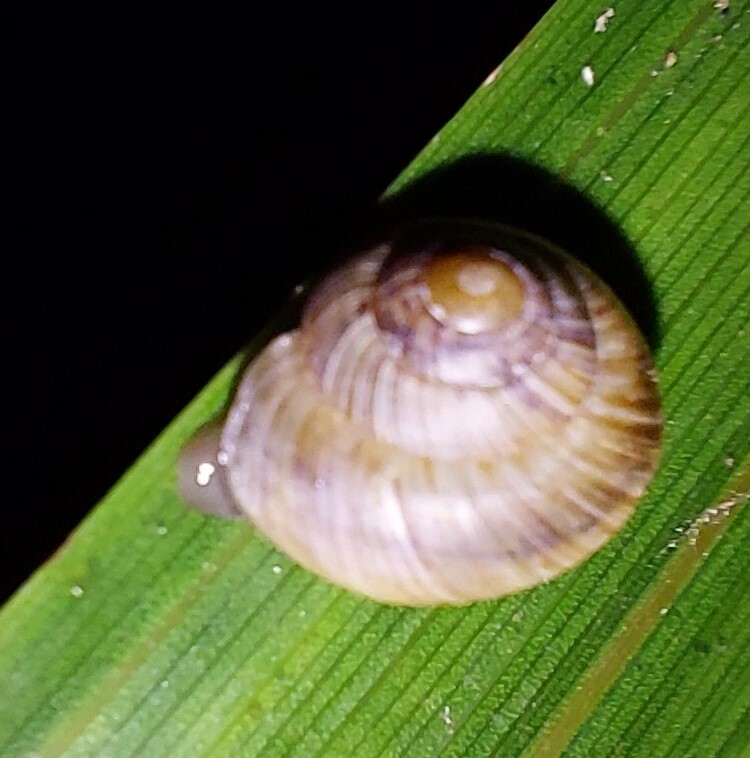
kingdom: Animalia
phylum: Mollusca
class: Gastropoda
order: Stylommatophora
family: Charopidae
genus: Serpho
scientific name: Serpho
